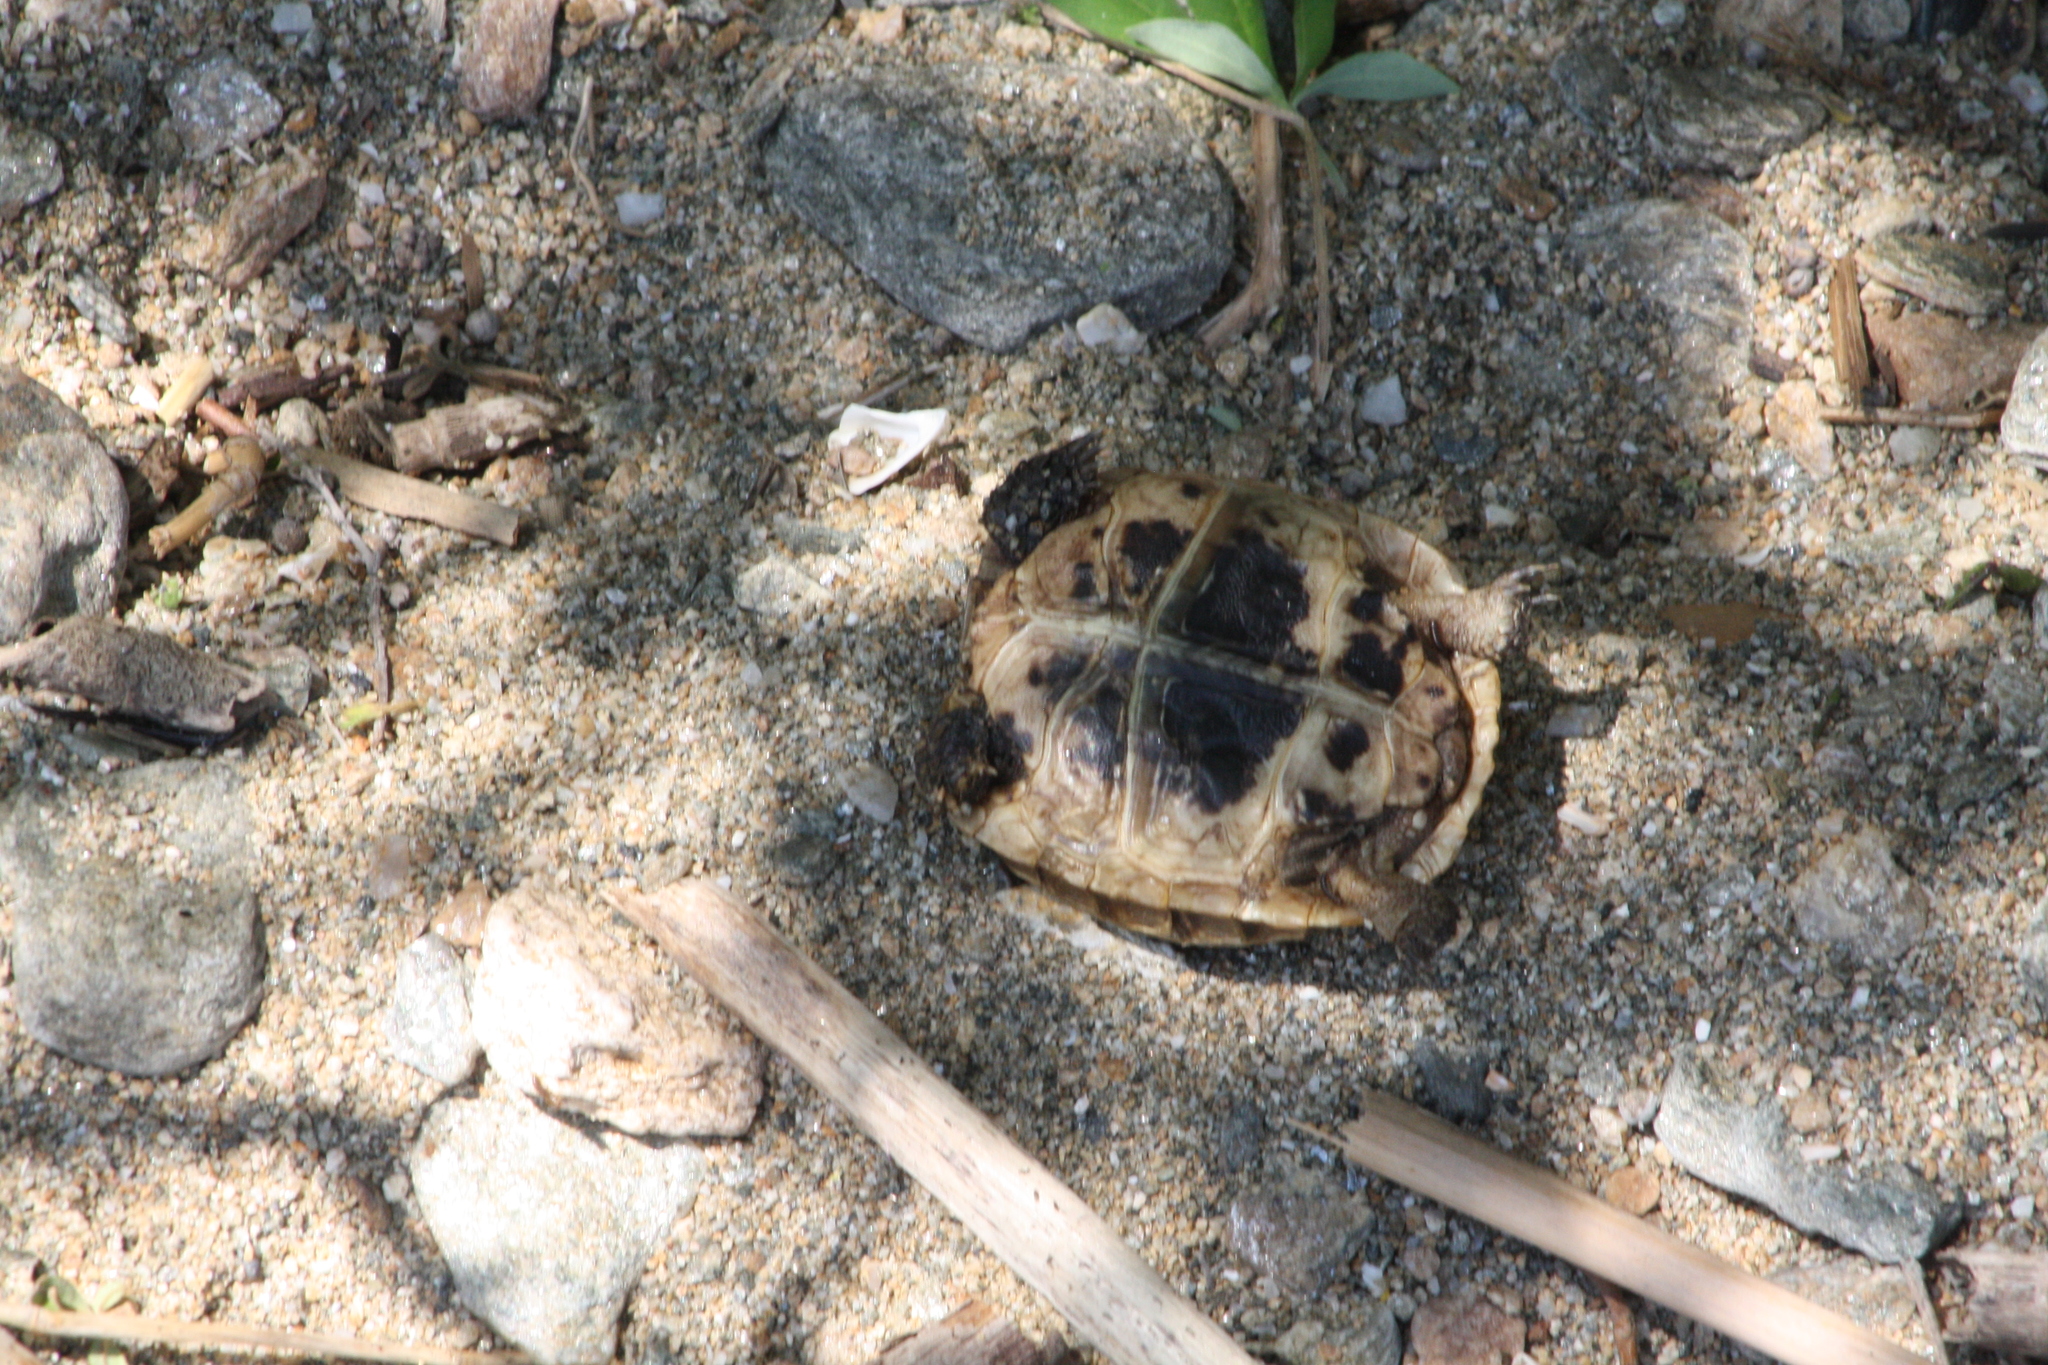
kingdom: Animalia
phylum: Chordata
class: Testudines
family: Testudinidae
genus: Testudo
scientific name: Testudo hermanni
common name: Hermann's tortoise
